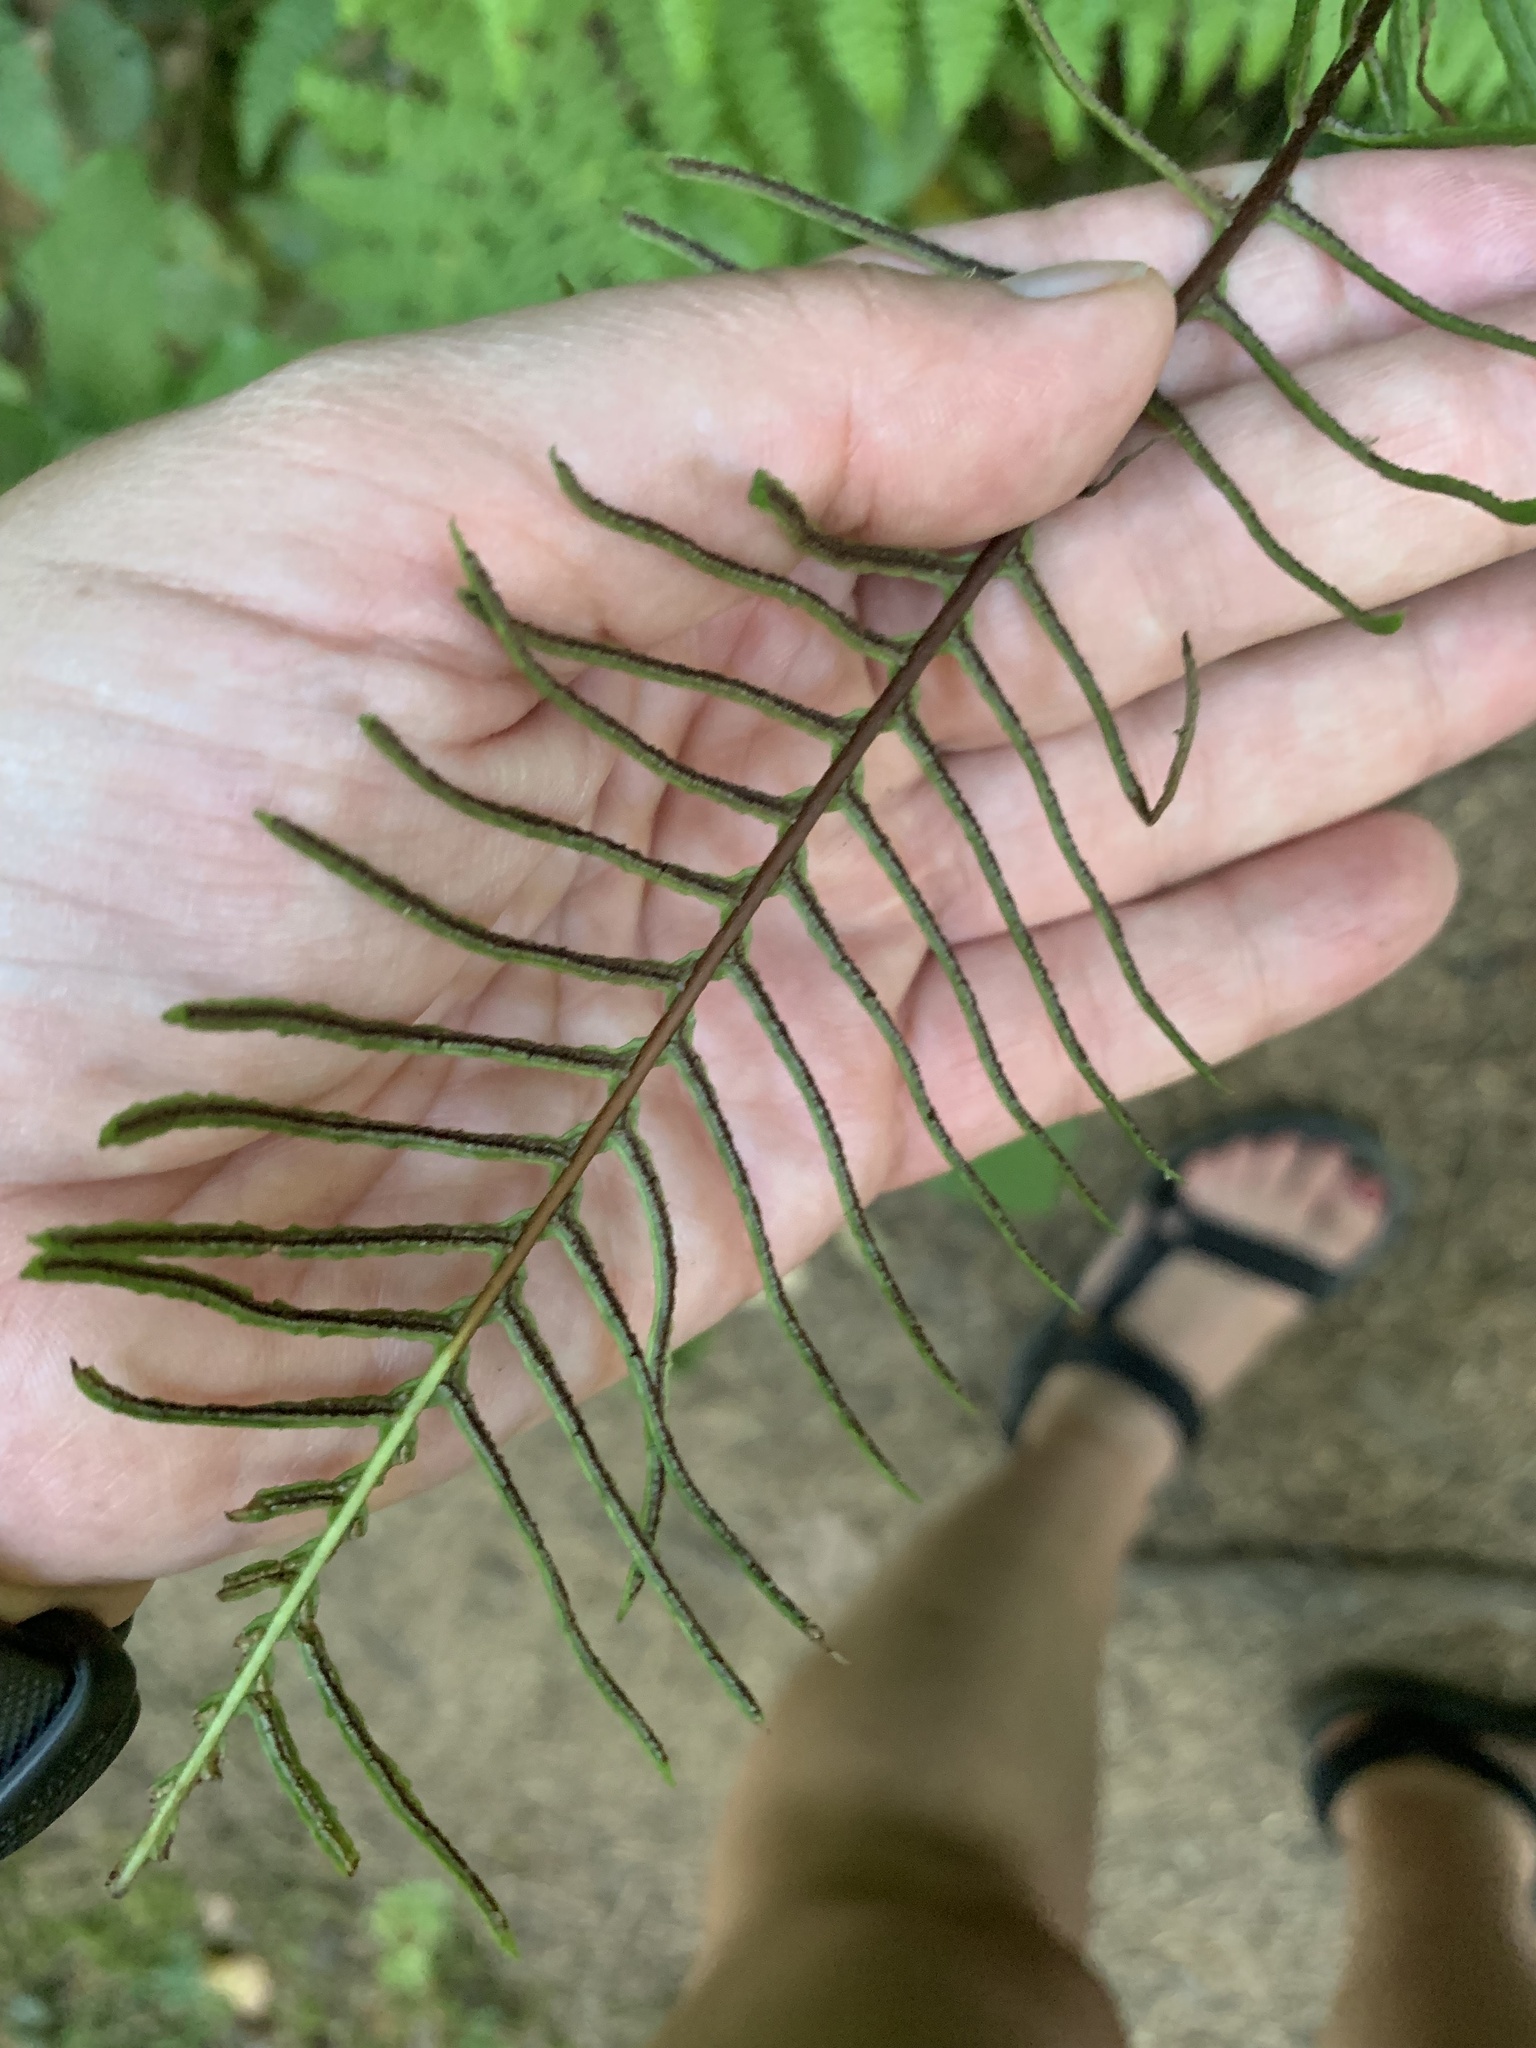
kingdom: Plantae
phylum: Tracheophyta
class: Polypodiopsida
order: Polypodiales
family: Blechnaceae
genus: Struthiopteris
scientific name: Struthiopteris spicant
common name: Deer fern
